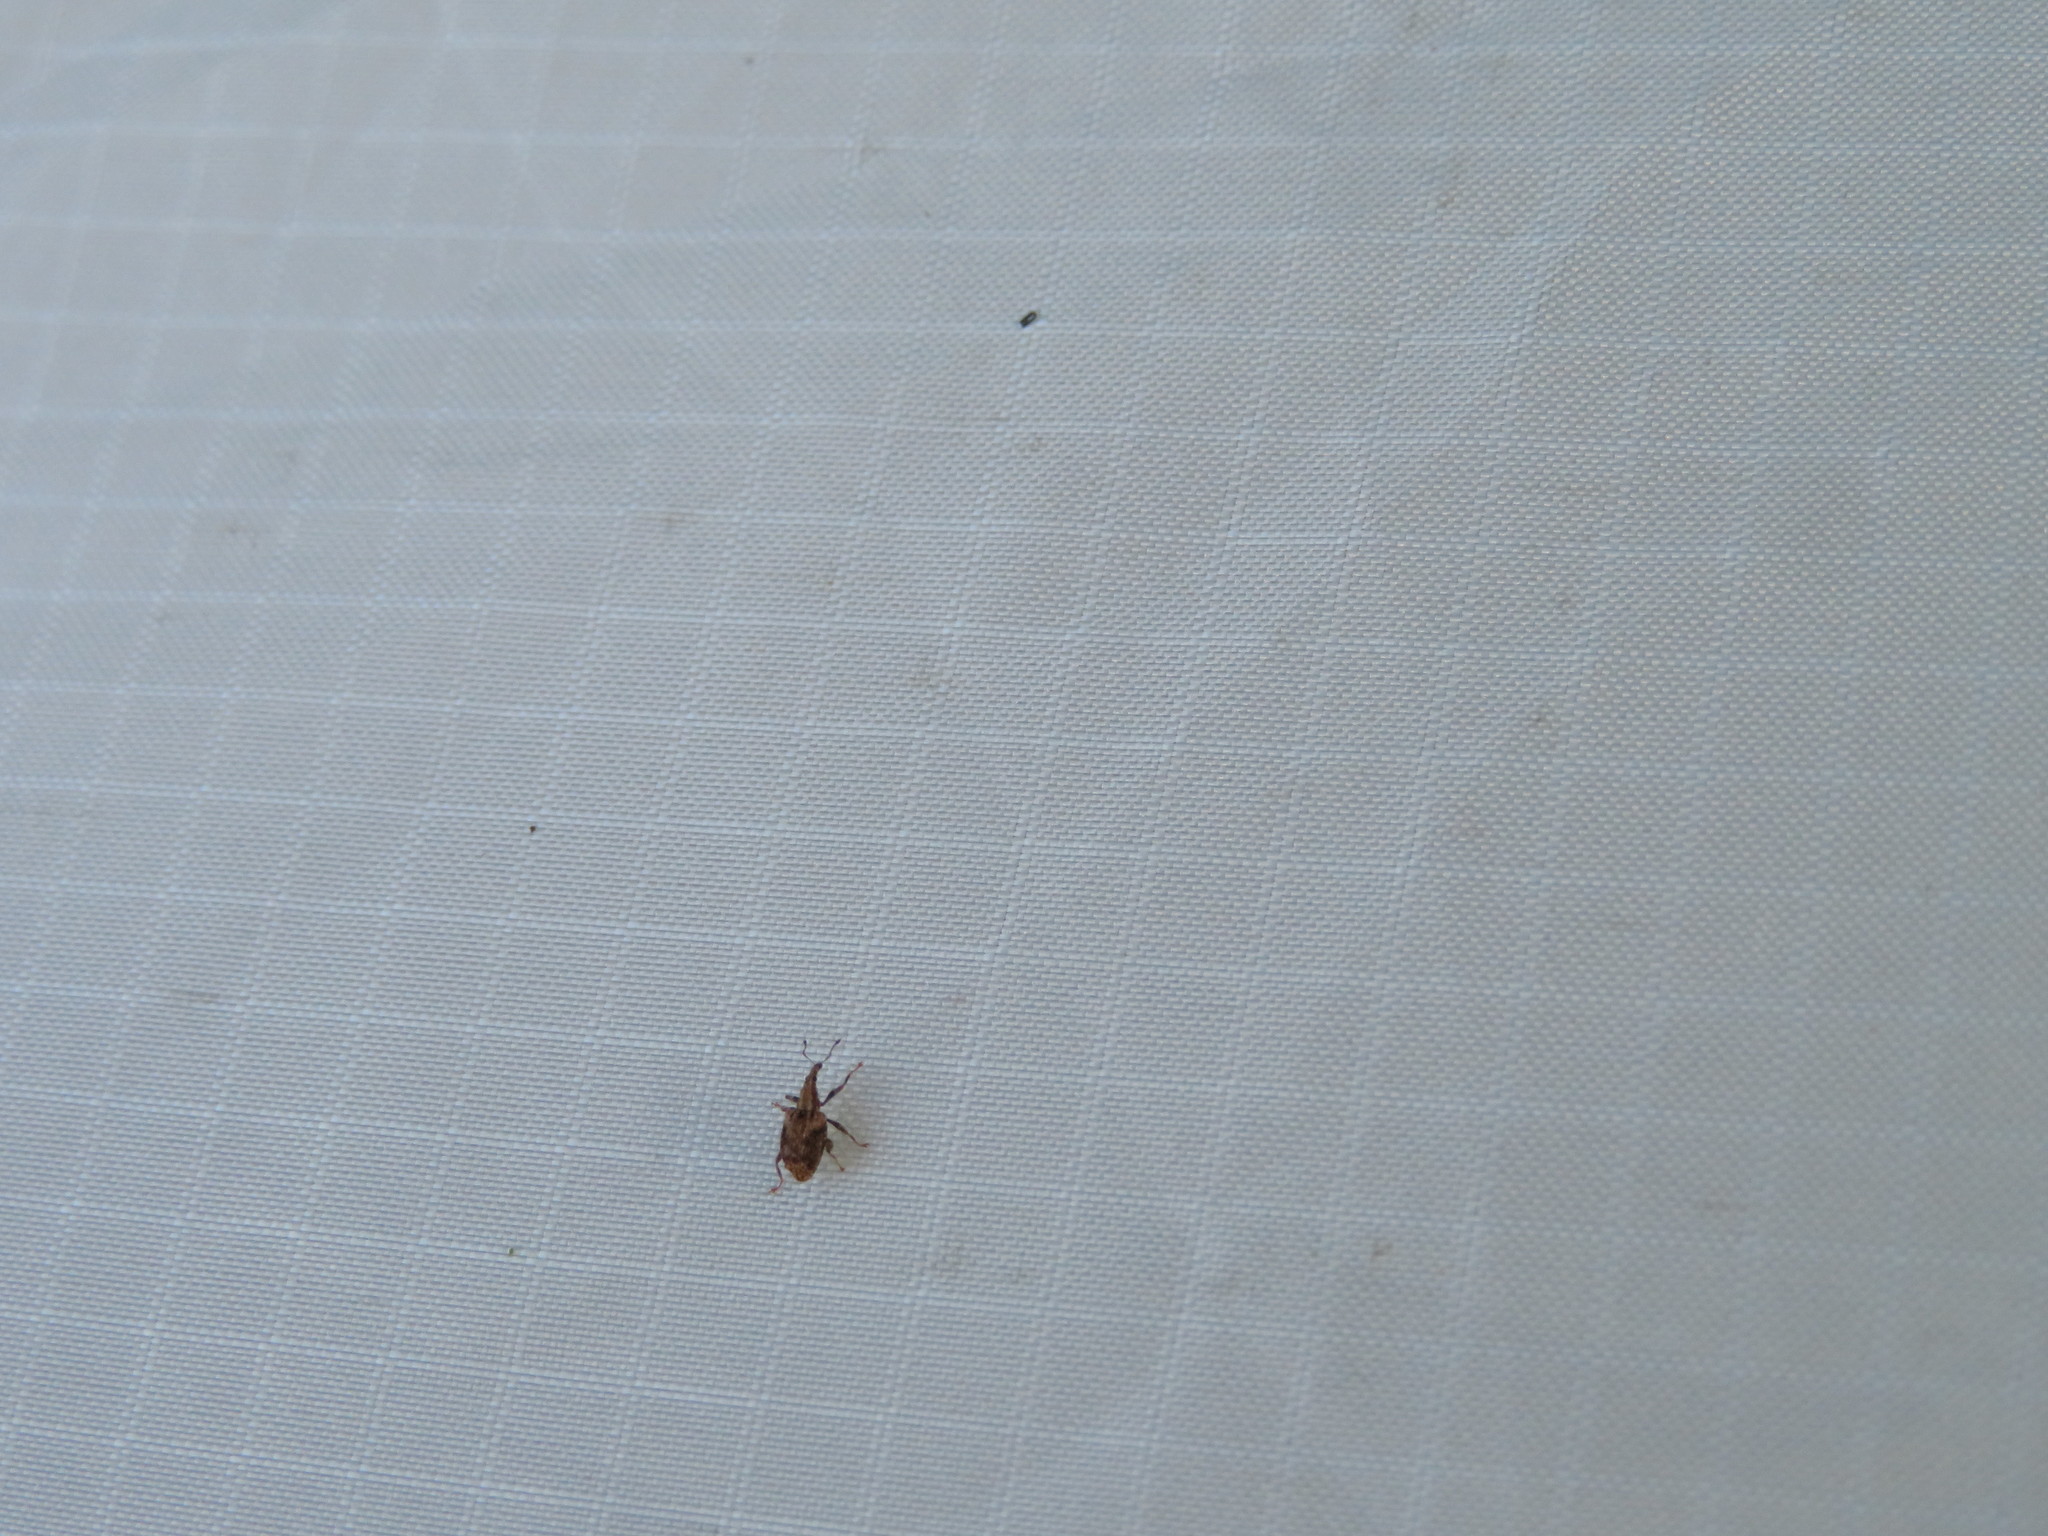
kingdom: Animalia
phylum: Arthropoda
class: Insecta
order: Coleoptera
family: Curculionidae
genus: Tysius
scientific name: Tysius bicornis
